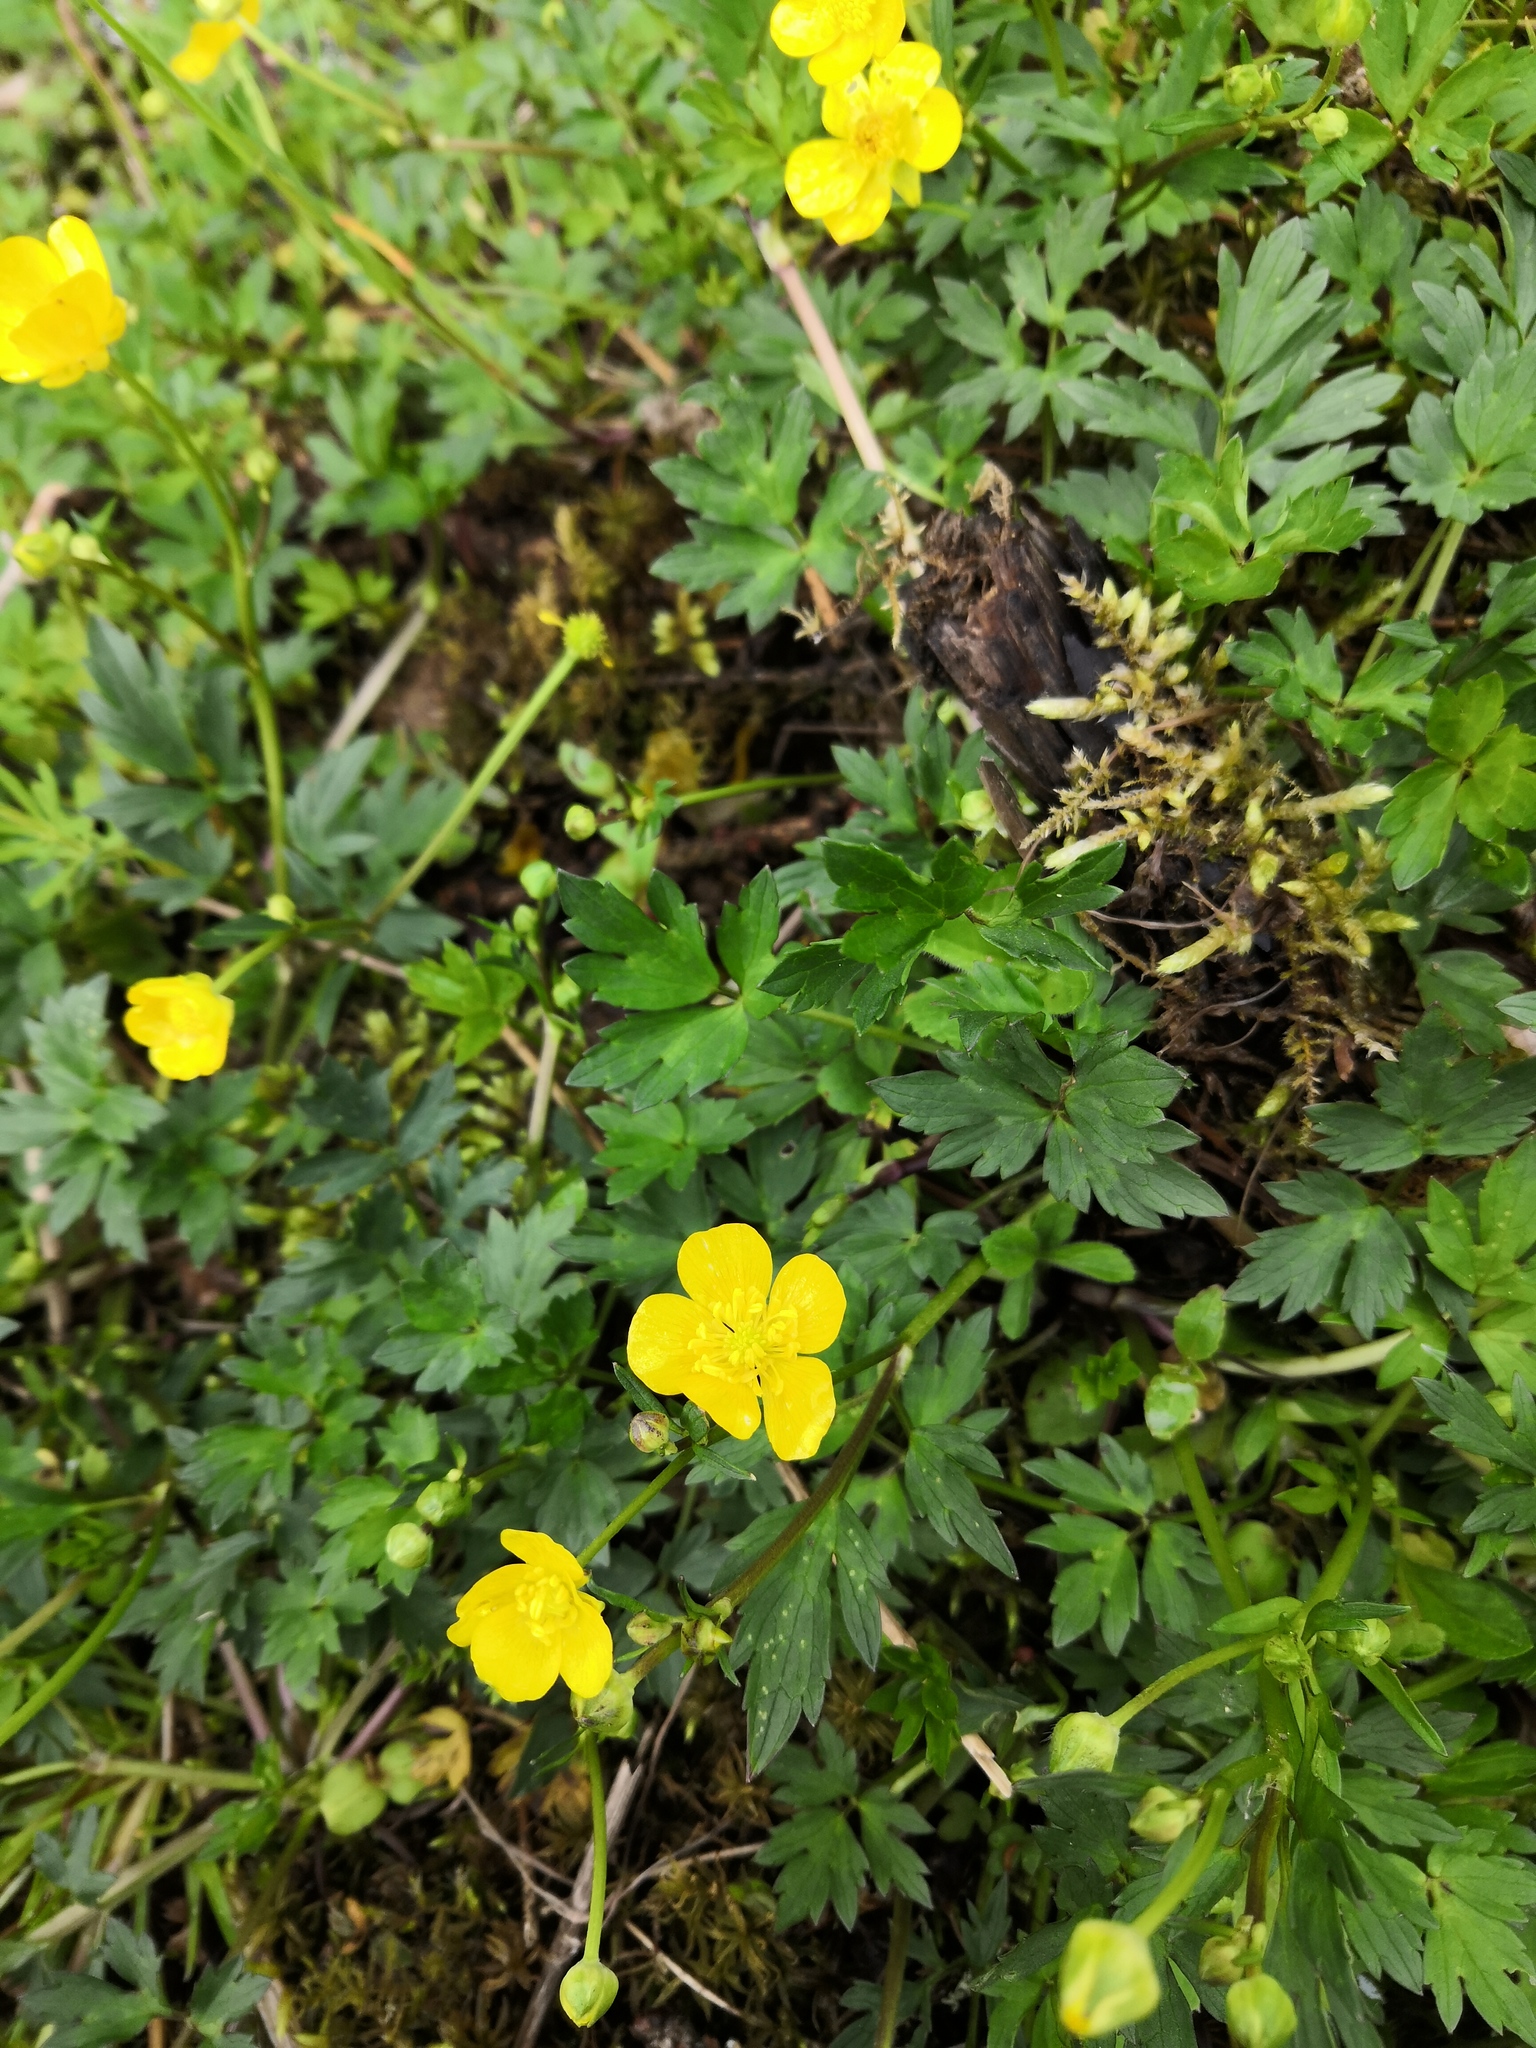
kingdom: Plantae
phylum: Tracheophyta
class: Magnoliopsida
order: Ranunculales
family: Ranunculaceae
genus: Ranunculus
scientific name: Ranunculus repens
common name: Creeping buttercup
